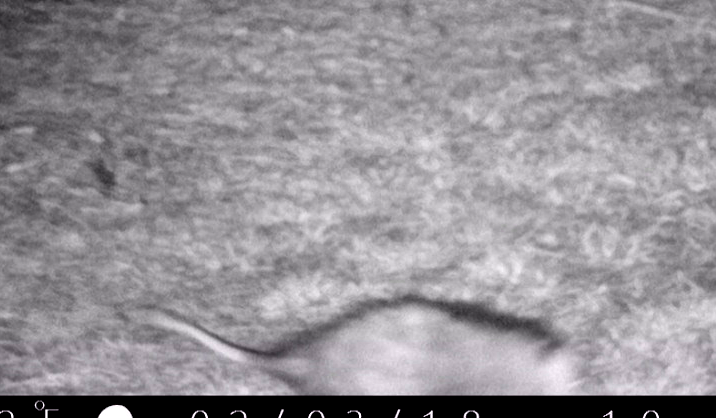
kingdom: Animalia
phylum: Chordata
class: Mammalia
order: Didelphimorphia
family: Didelphidae
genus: Didelphis
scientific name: Didelphis virginiana
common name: Virginia opossum
